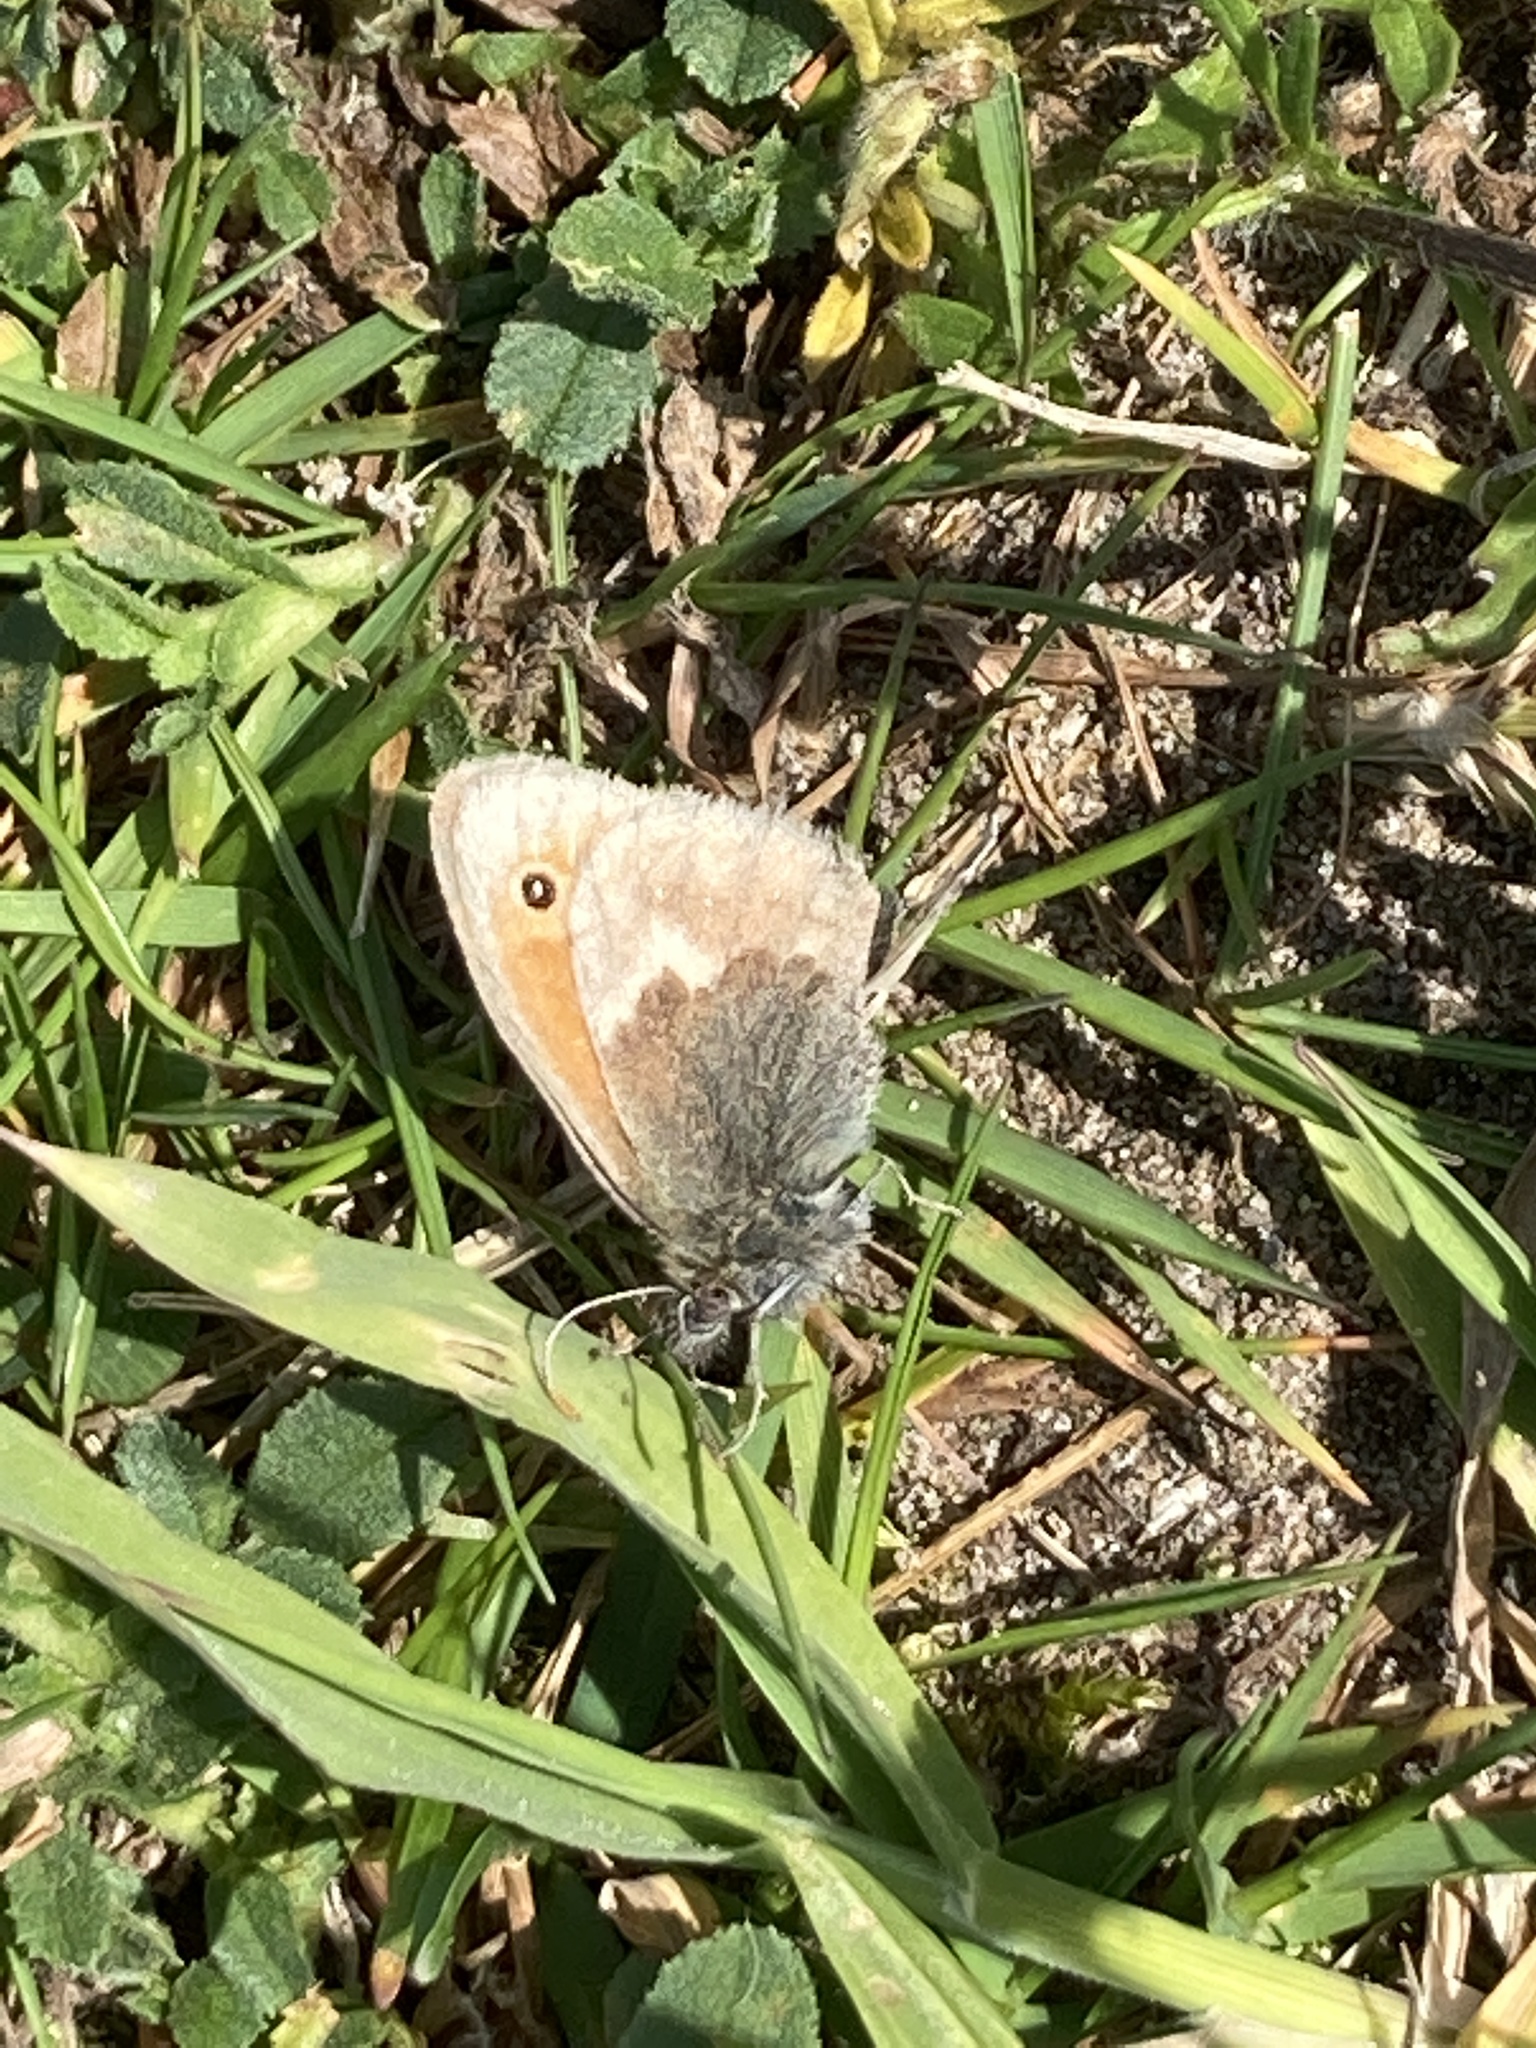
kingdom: Animalia
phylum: Arthropoda
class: Insecta
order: Lepidoptera
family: Nymphalidae
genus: Coenonympha
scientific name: Coenonympha pamphilus
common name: Small heath
